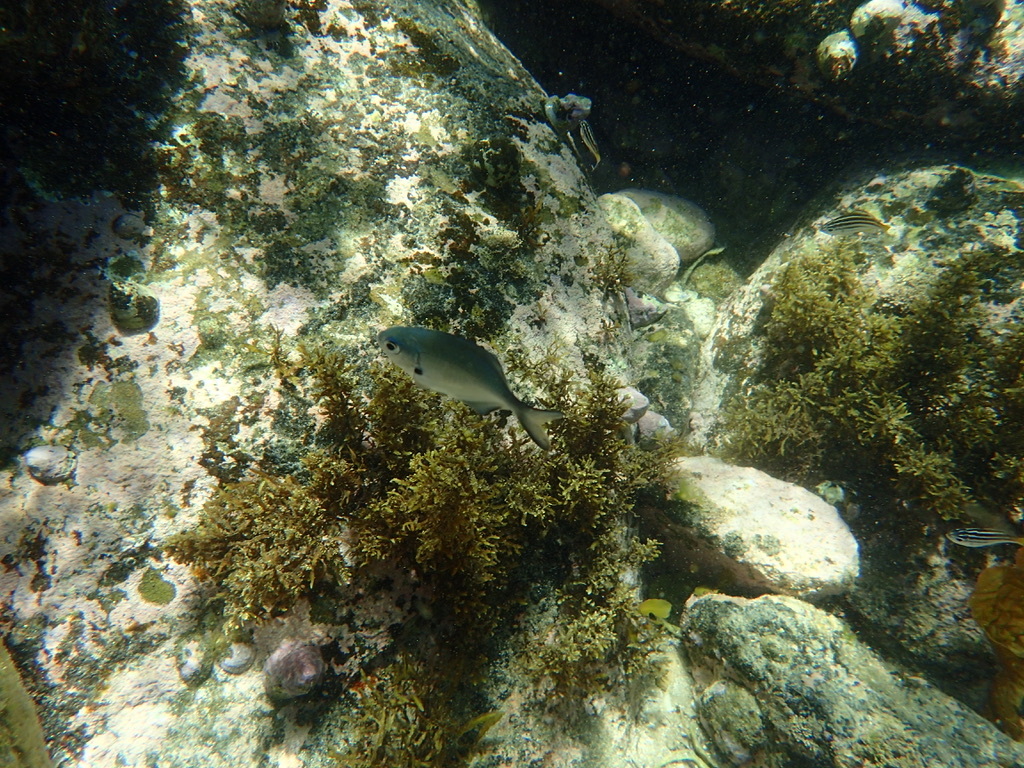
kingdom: Animalia
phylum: Chordata
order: Perciformes
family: Kyphosidae
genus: Scorpis
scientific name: Scorpis lineolata
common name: Sweep
